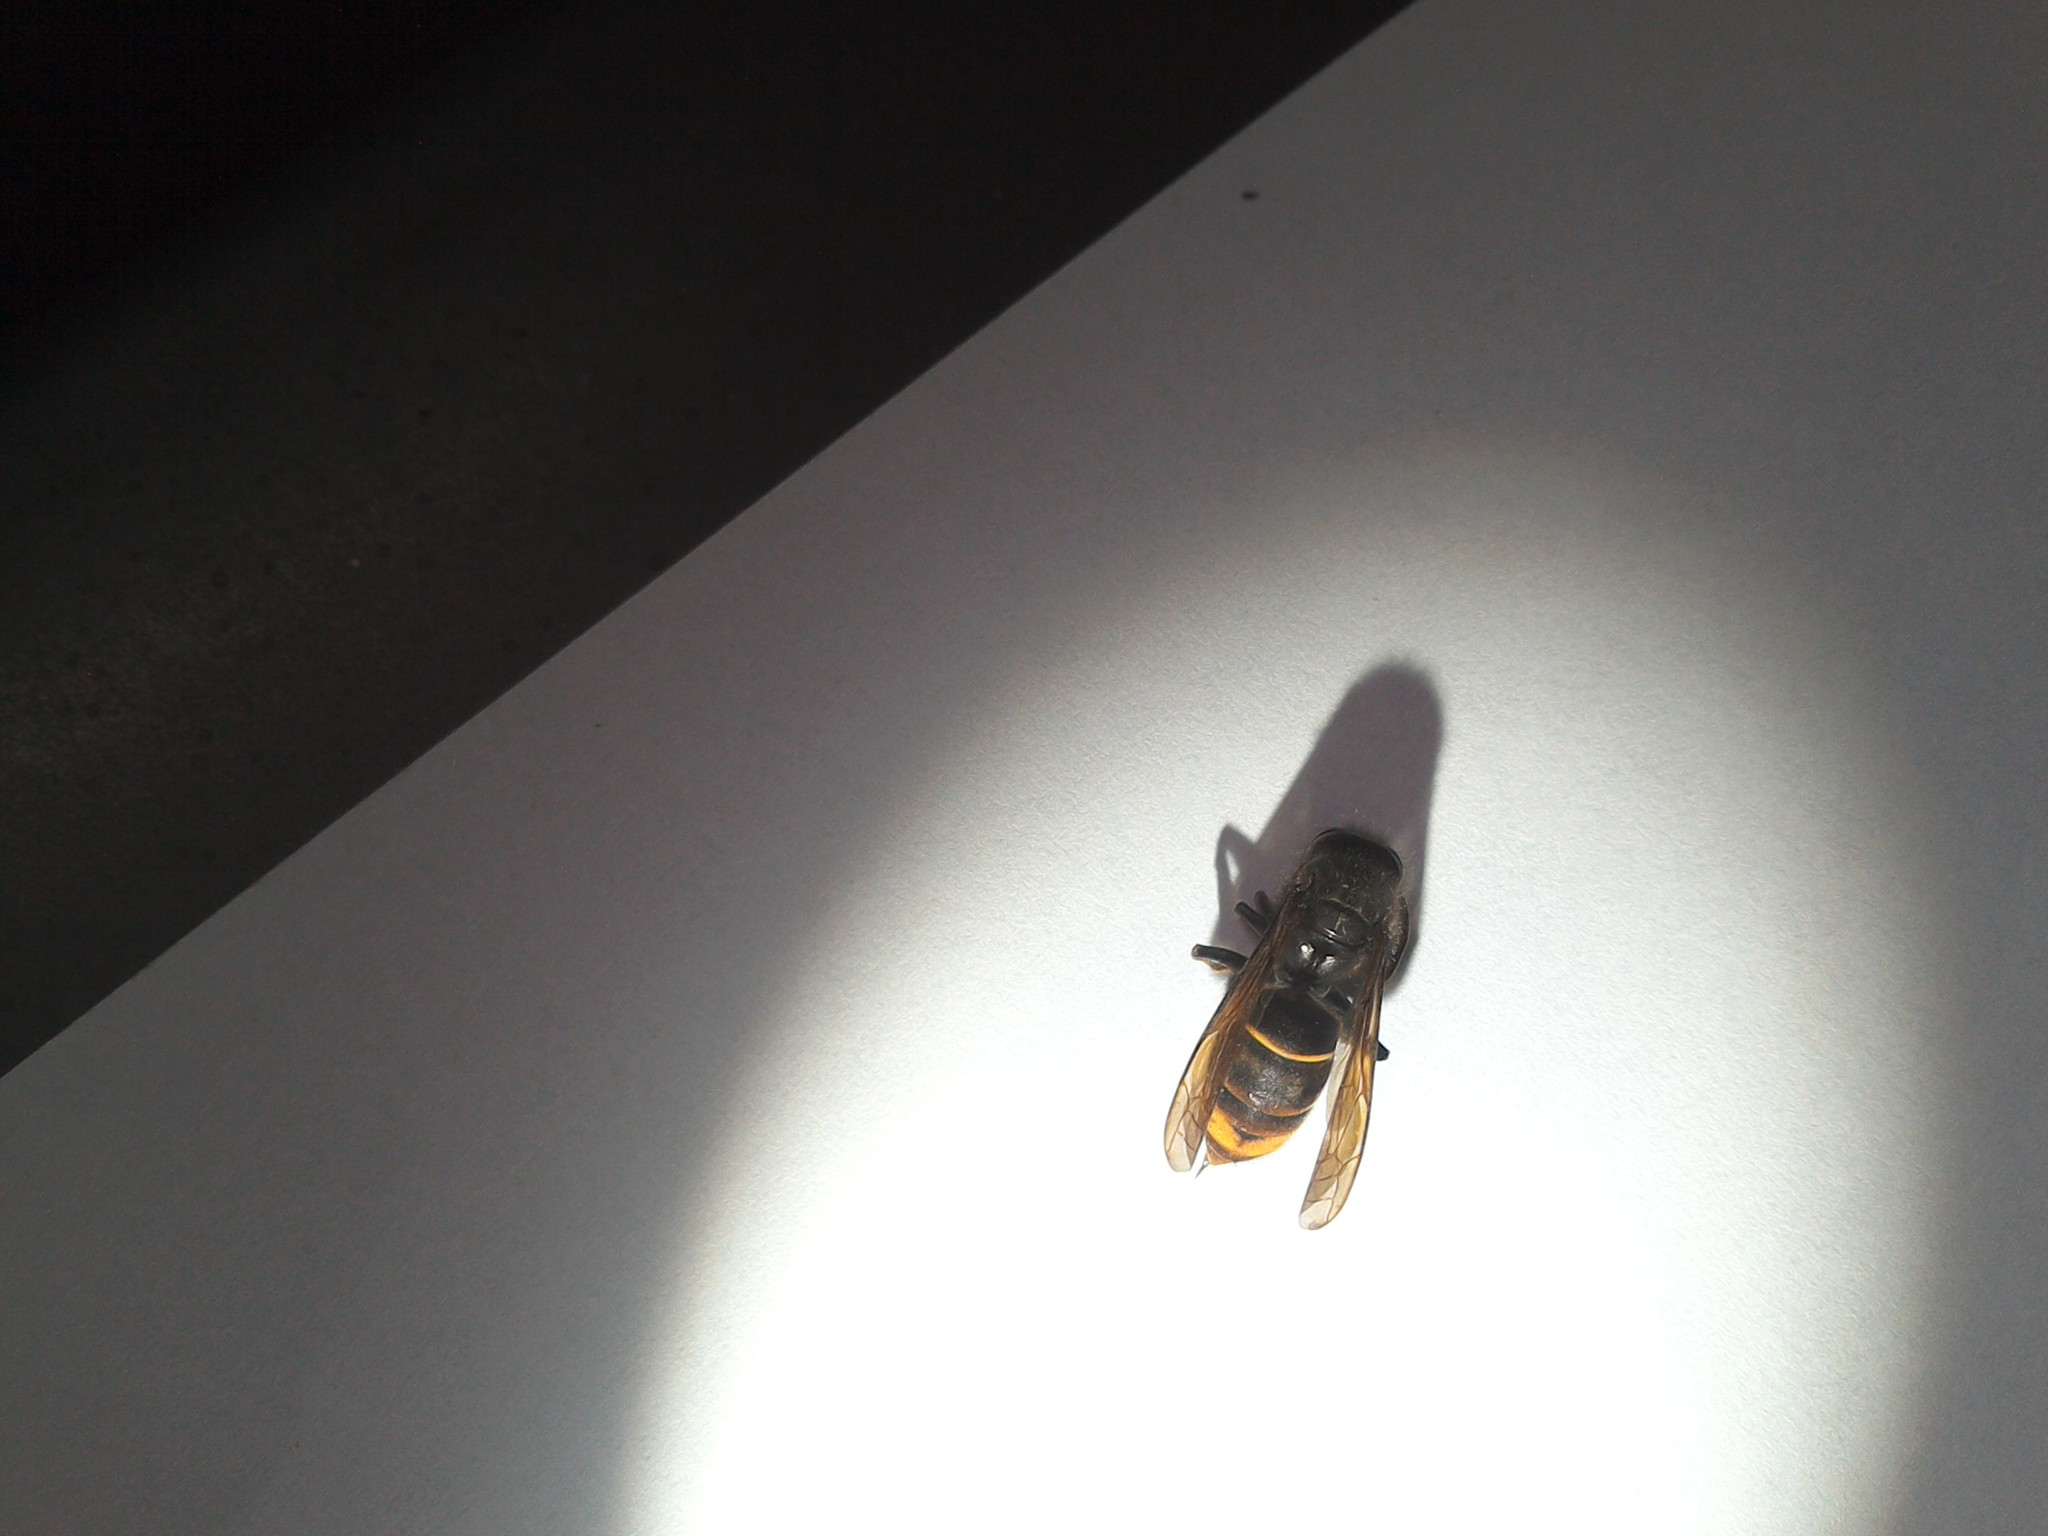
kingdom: Animalia
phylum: Arthropoda
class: Insecta
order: Hymenoptera
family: Vespidae
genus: Vespa
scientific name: Vespa velutina
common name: Asian hornet
